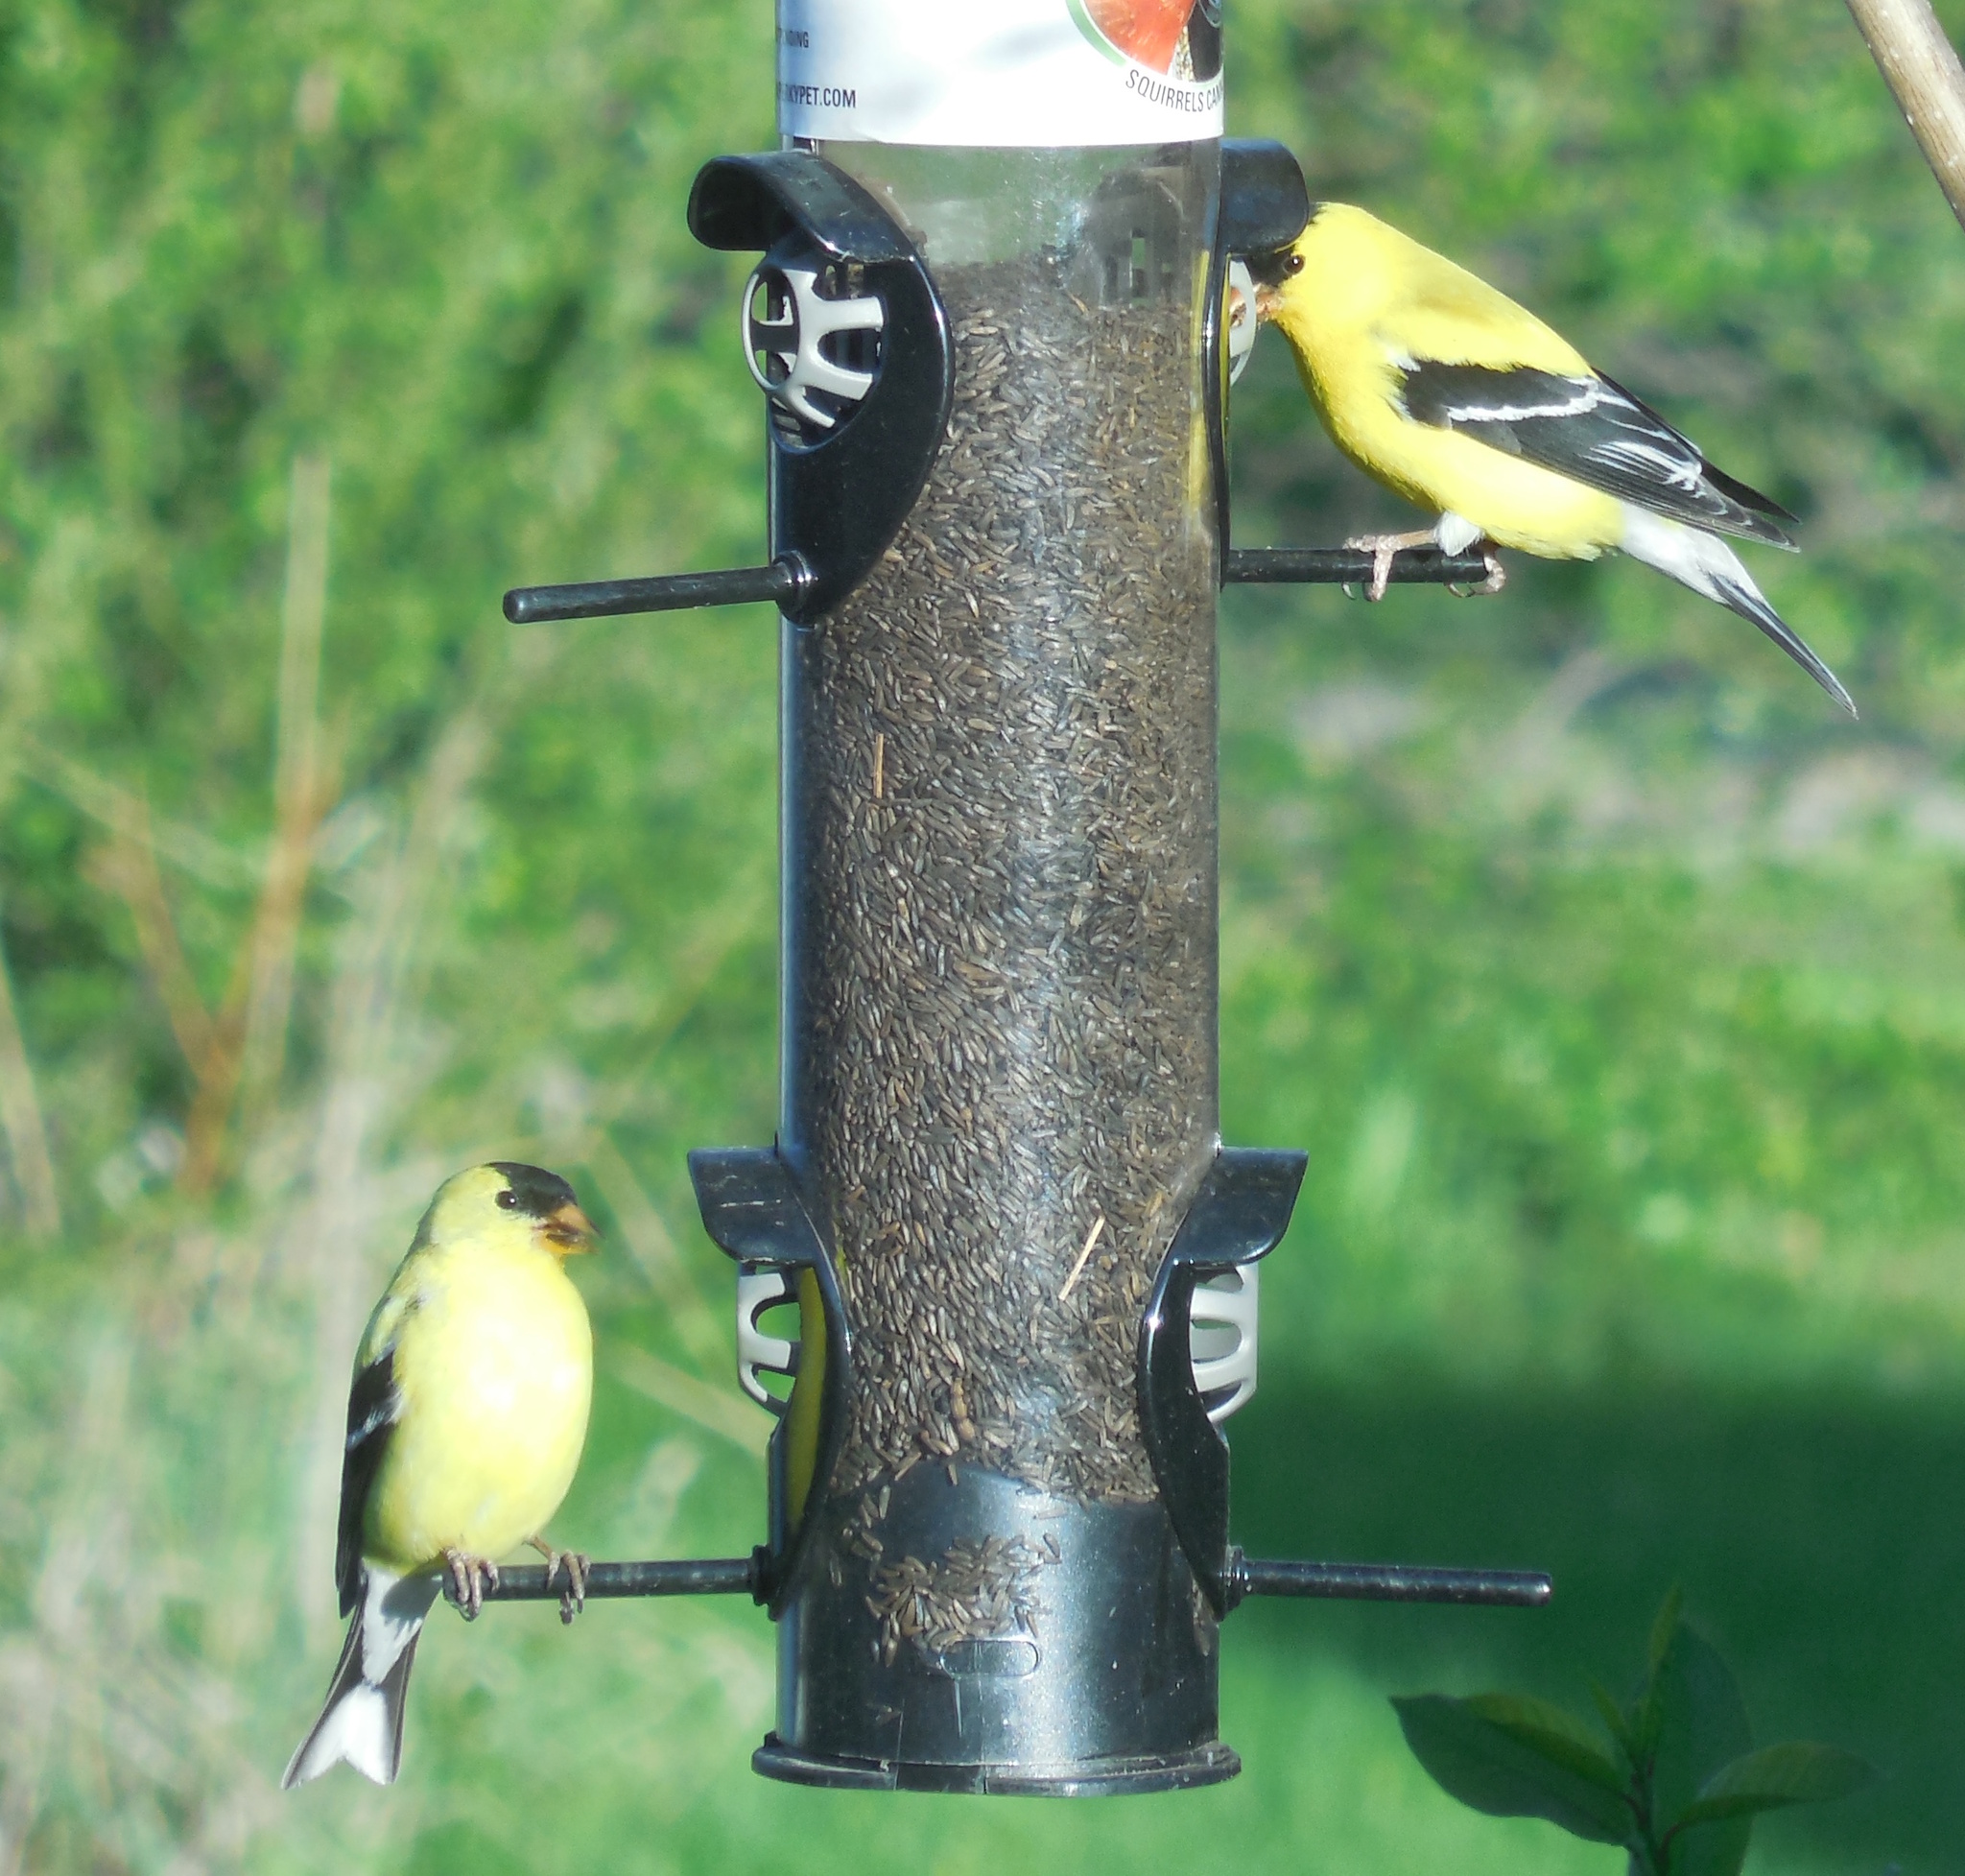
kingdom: Animalia
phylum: Chordata
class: Aves
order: Passeriformes
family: Fringillidae
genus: Spinus
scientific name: Spinus tristis
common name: American goldfinch
